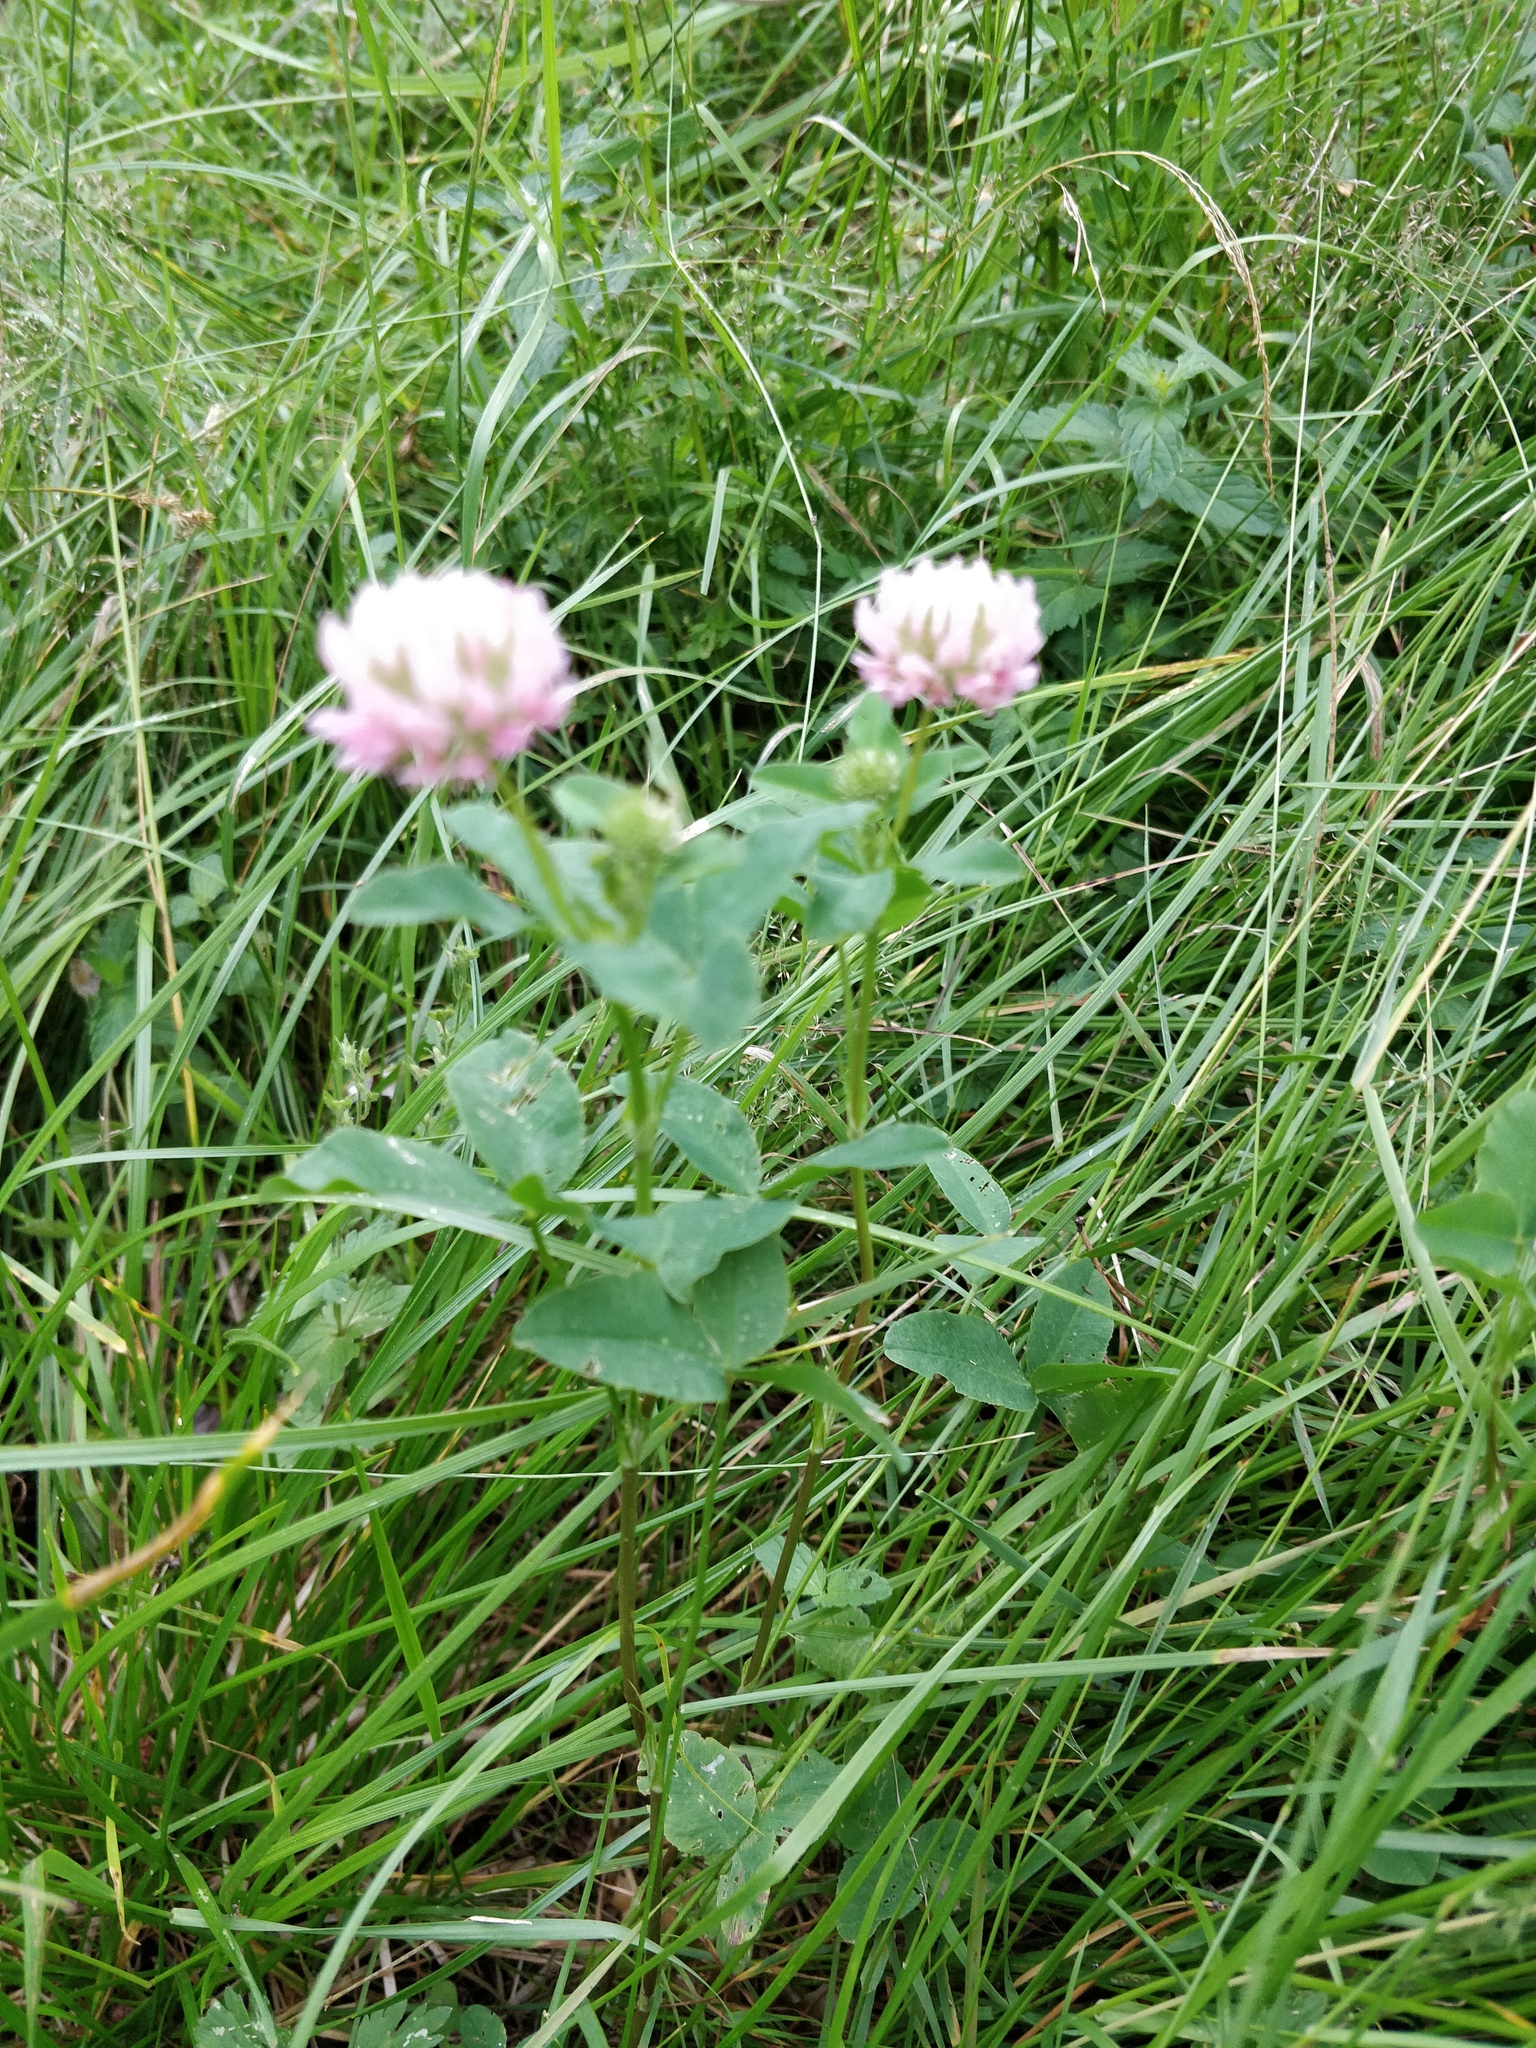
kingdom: Plantae
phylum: Tracheophyta
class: Magnoliopsida
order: Fabales
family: Fabaceae
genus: Trifolium
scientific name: Trifolium hybridum
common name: Alsike clover
